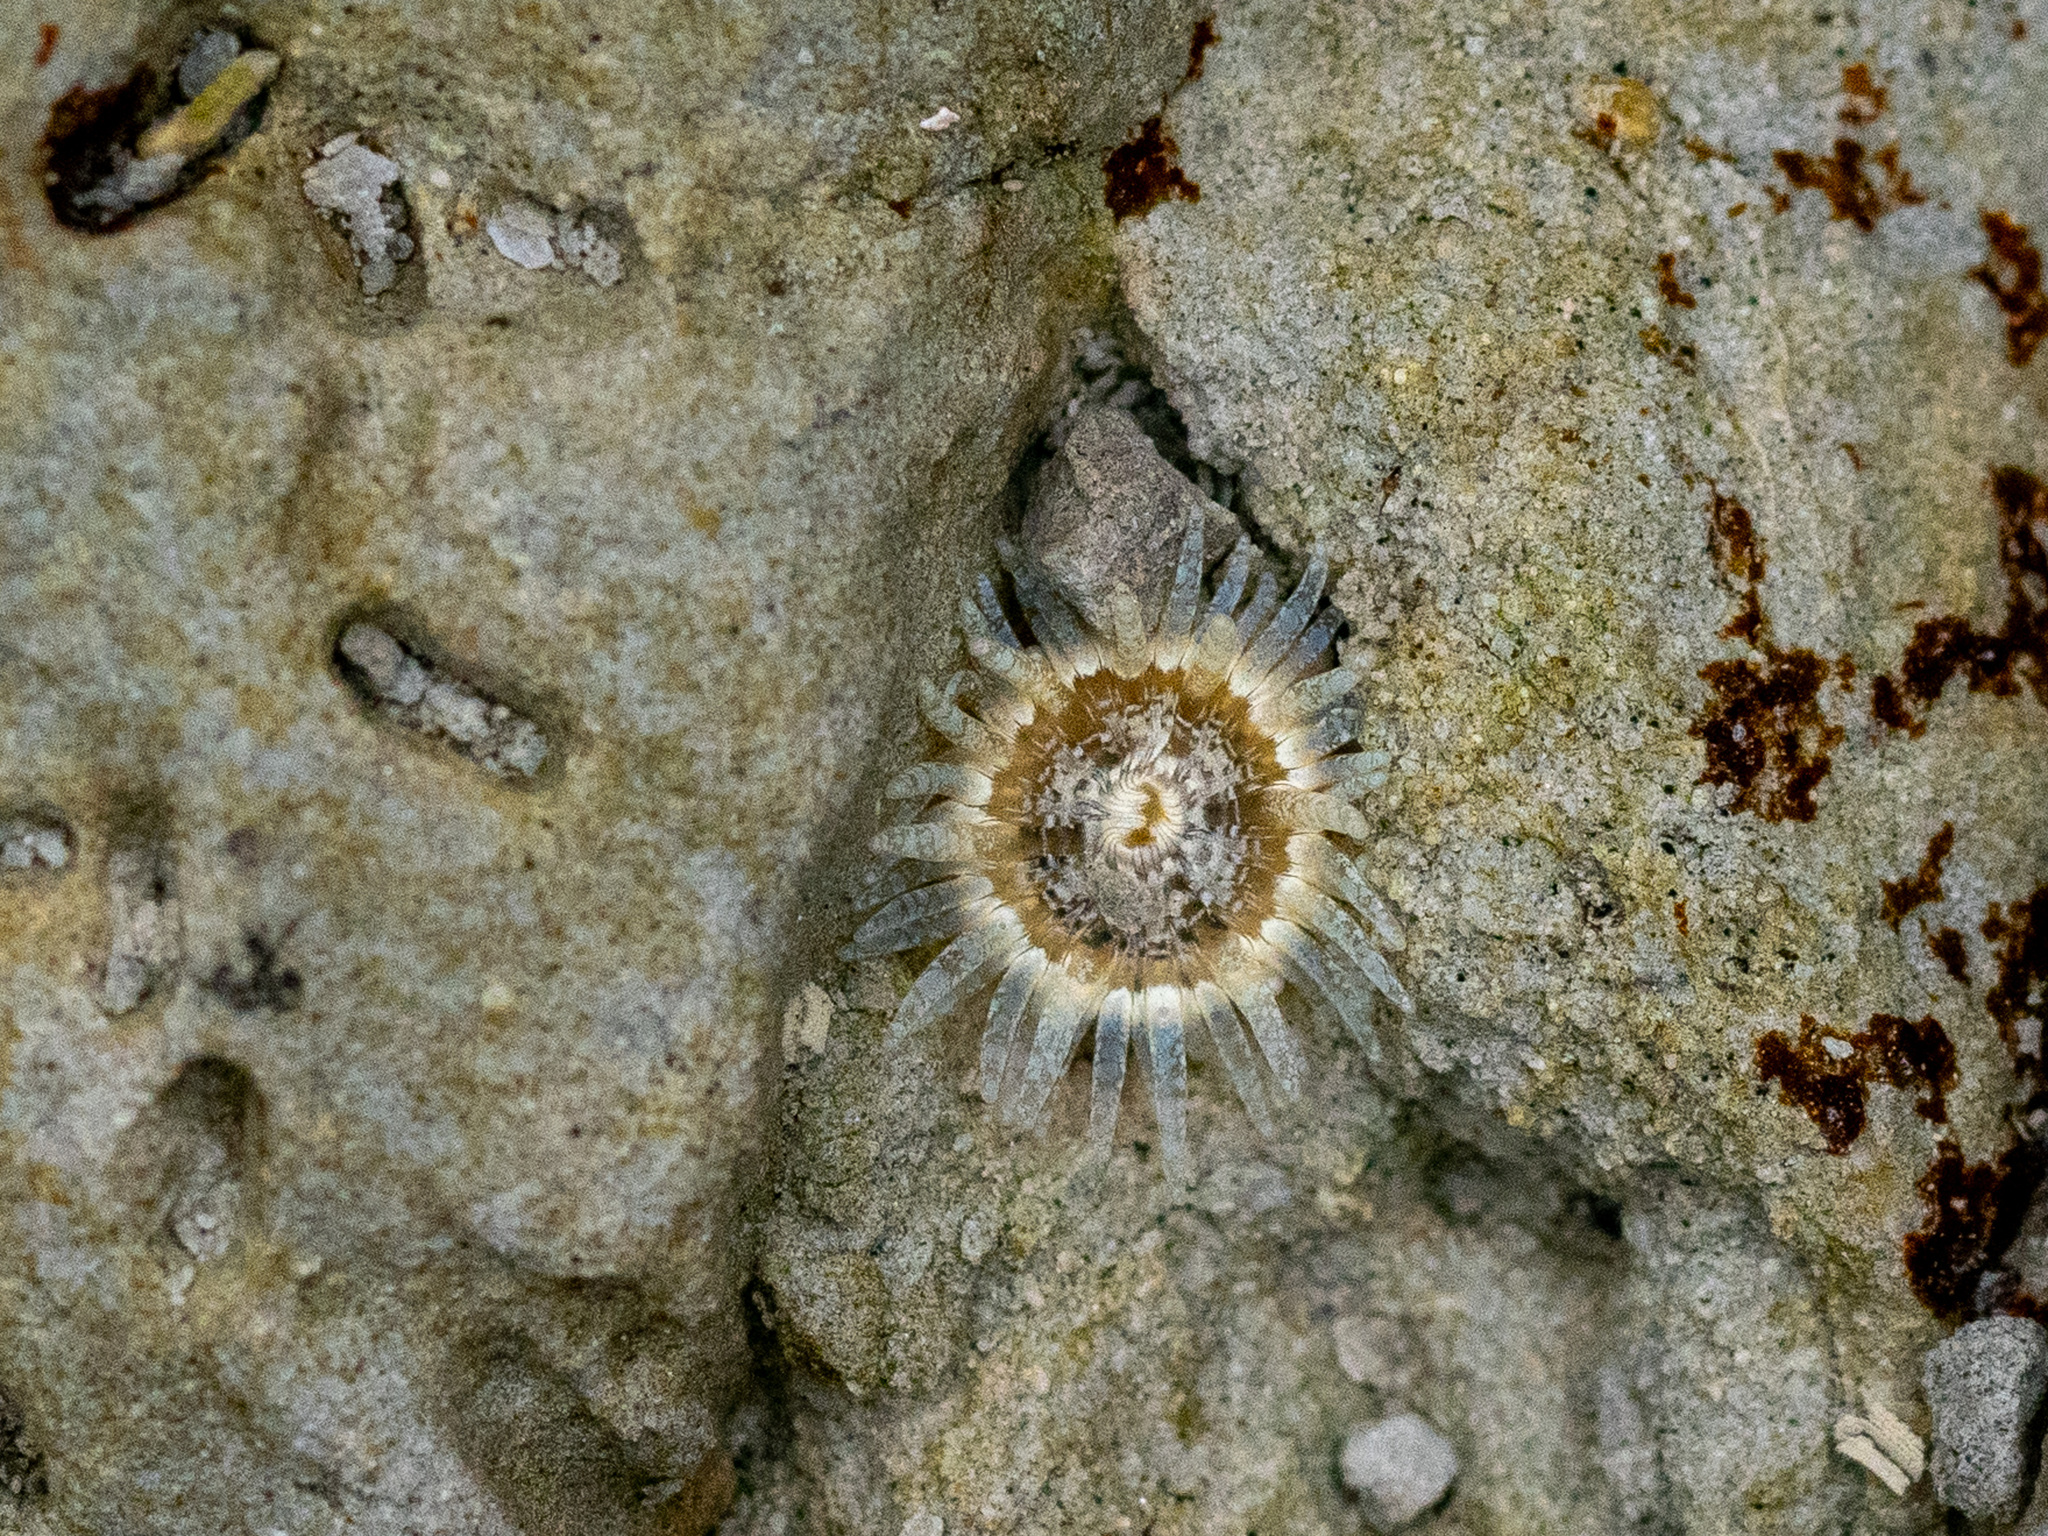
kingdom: Animalia
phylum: Cnidaria
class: Anthozoa
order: Actiniaria
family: Actiniidae
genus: Anthopleura
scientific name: Anthopleura hermaphroditica
